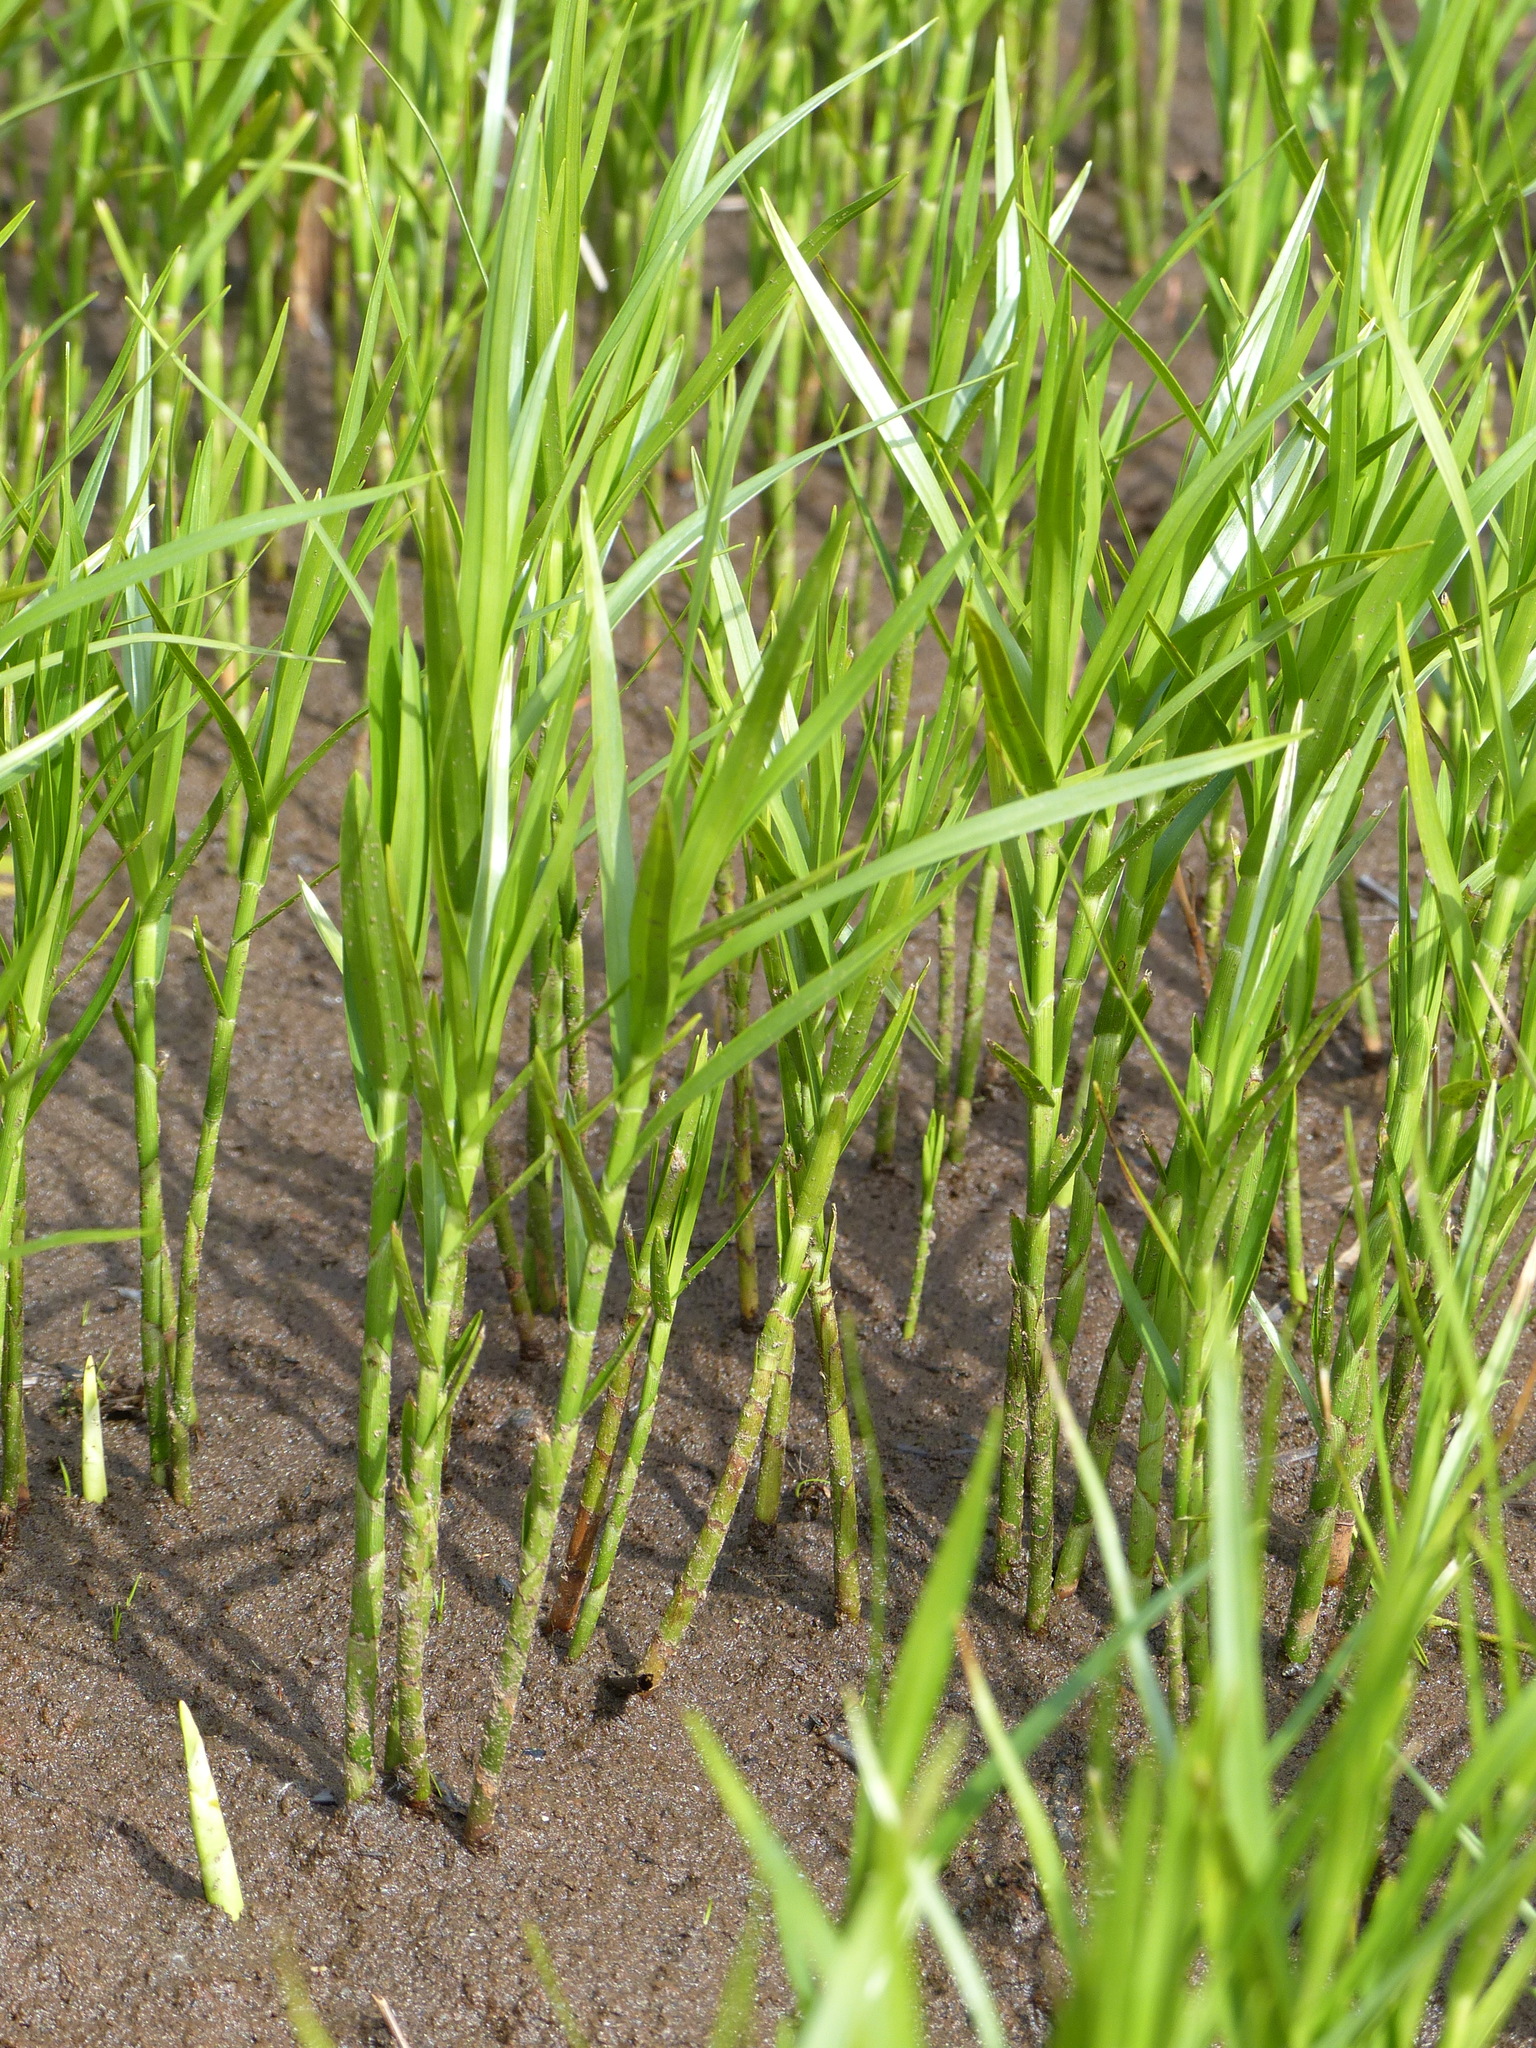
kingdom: Plantae
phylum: Tracheophyta
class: Liliopsida
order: Poales
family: Cyperaceae
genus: Dulichium
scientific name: Dulichium arundinaceum
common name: Three-way sedge
